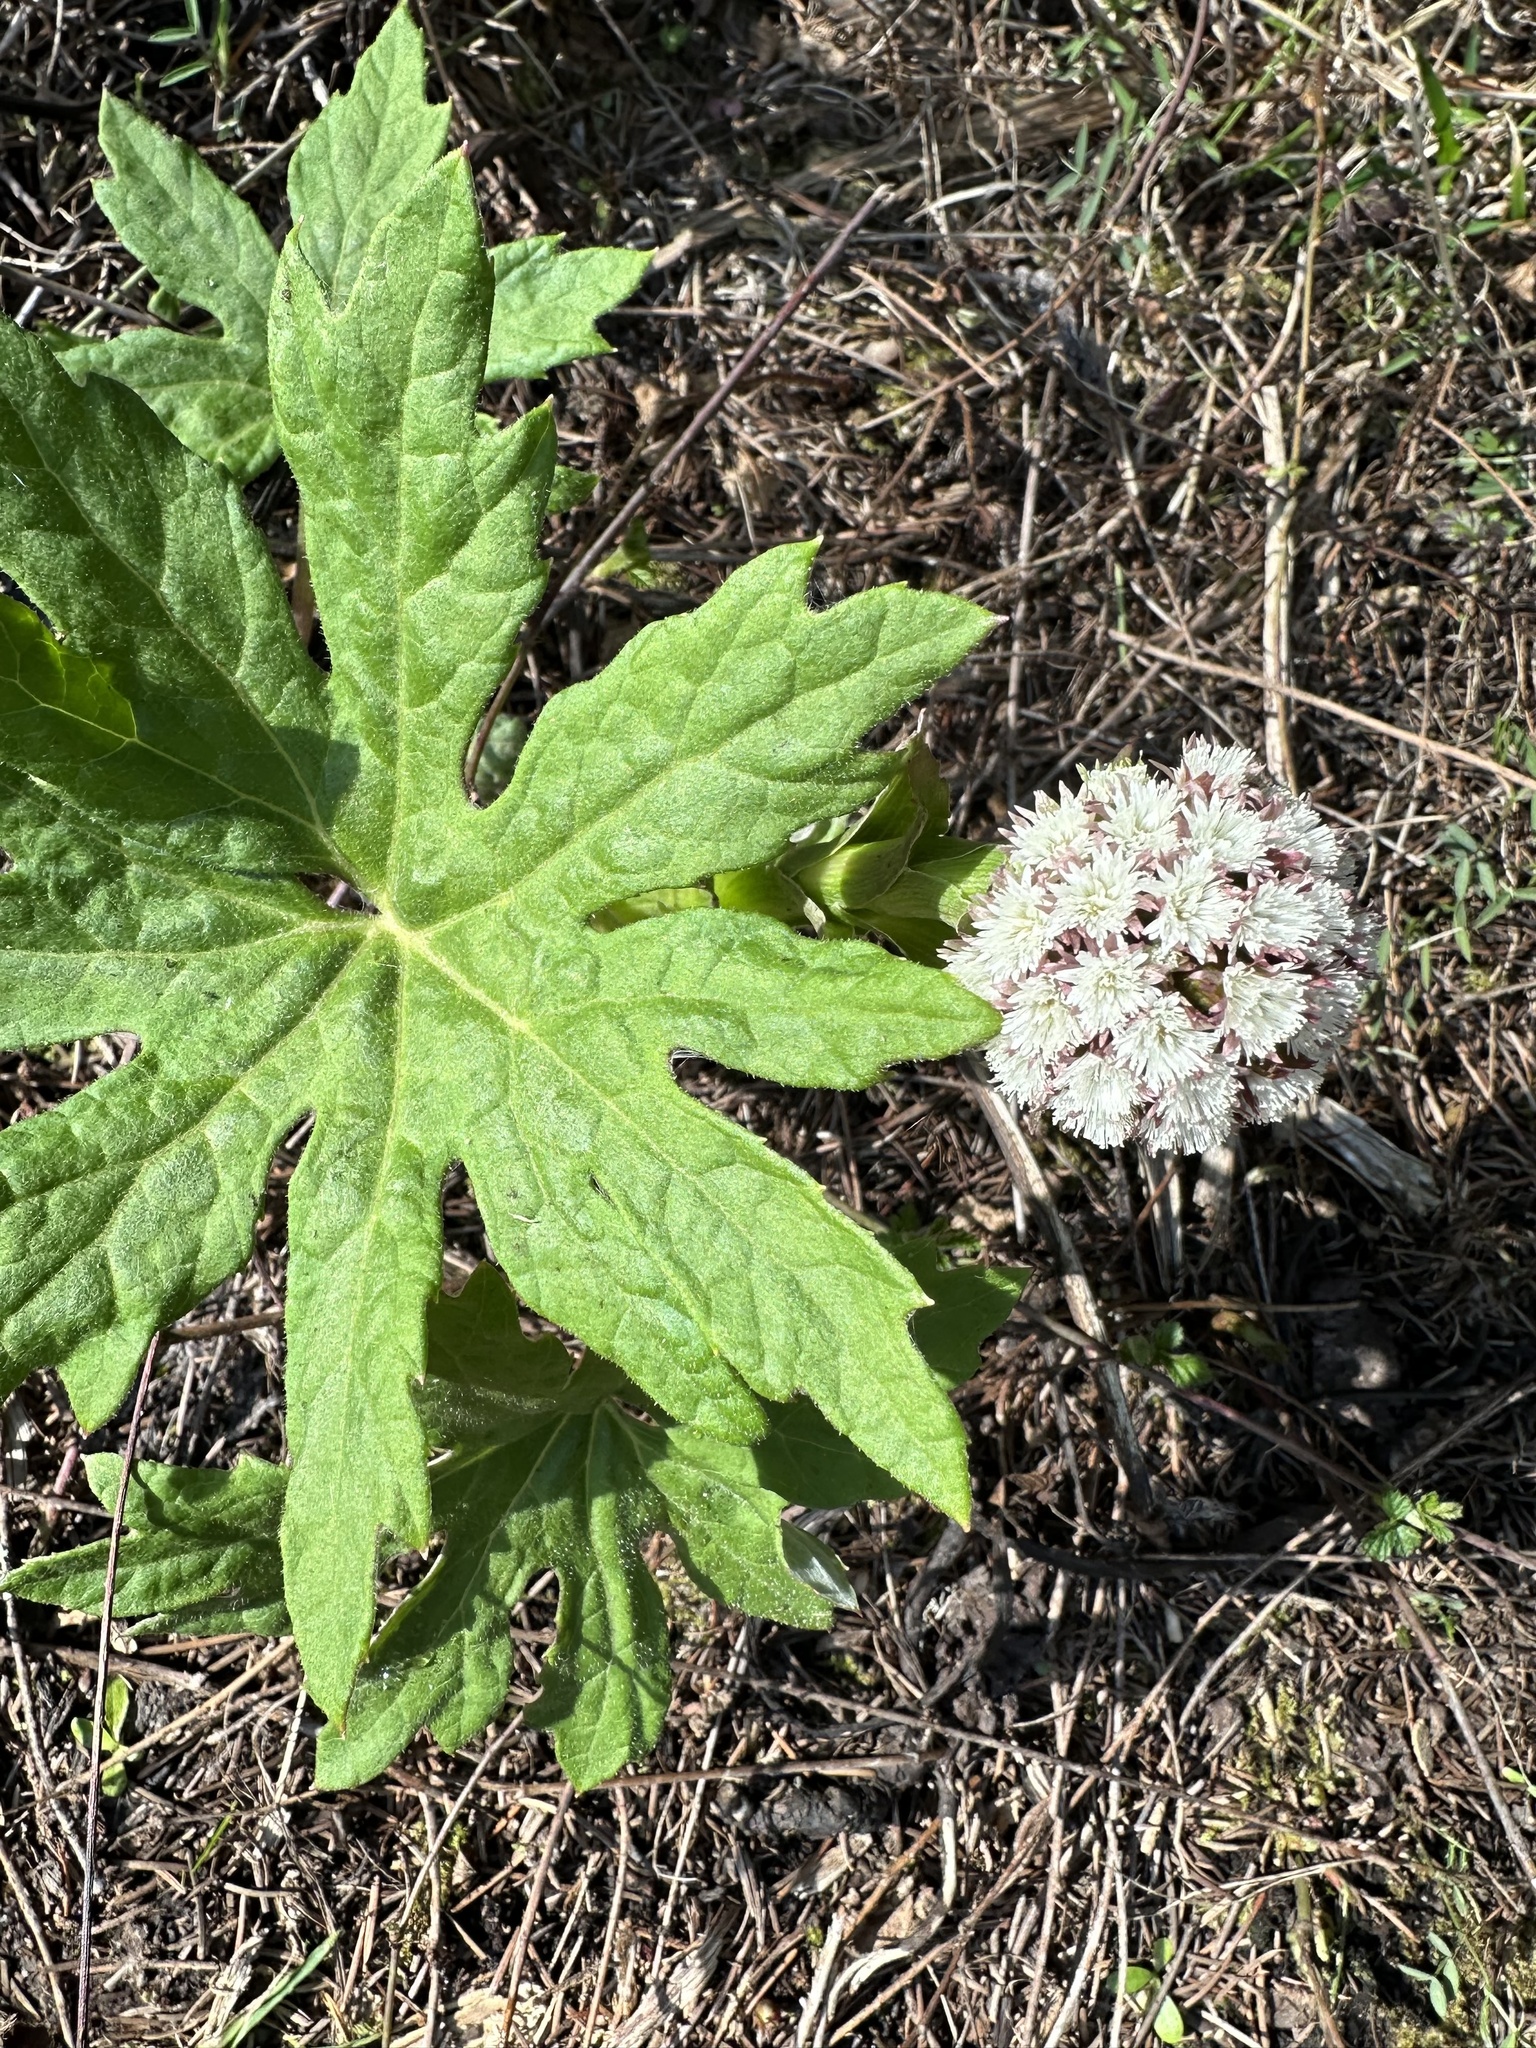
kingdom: Plantae
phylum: Tracheophyta
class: Magnoliopsida
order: Asterales
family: Asteraceae
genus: Petasites
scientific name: Petasites frigidus
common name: Arctic butterbur
